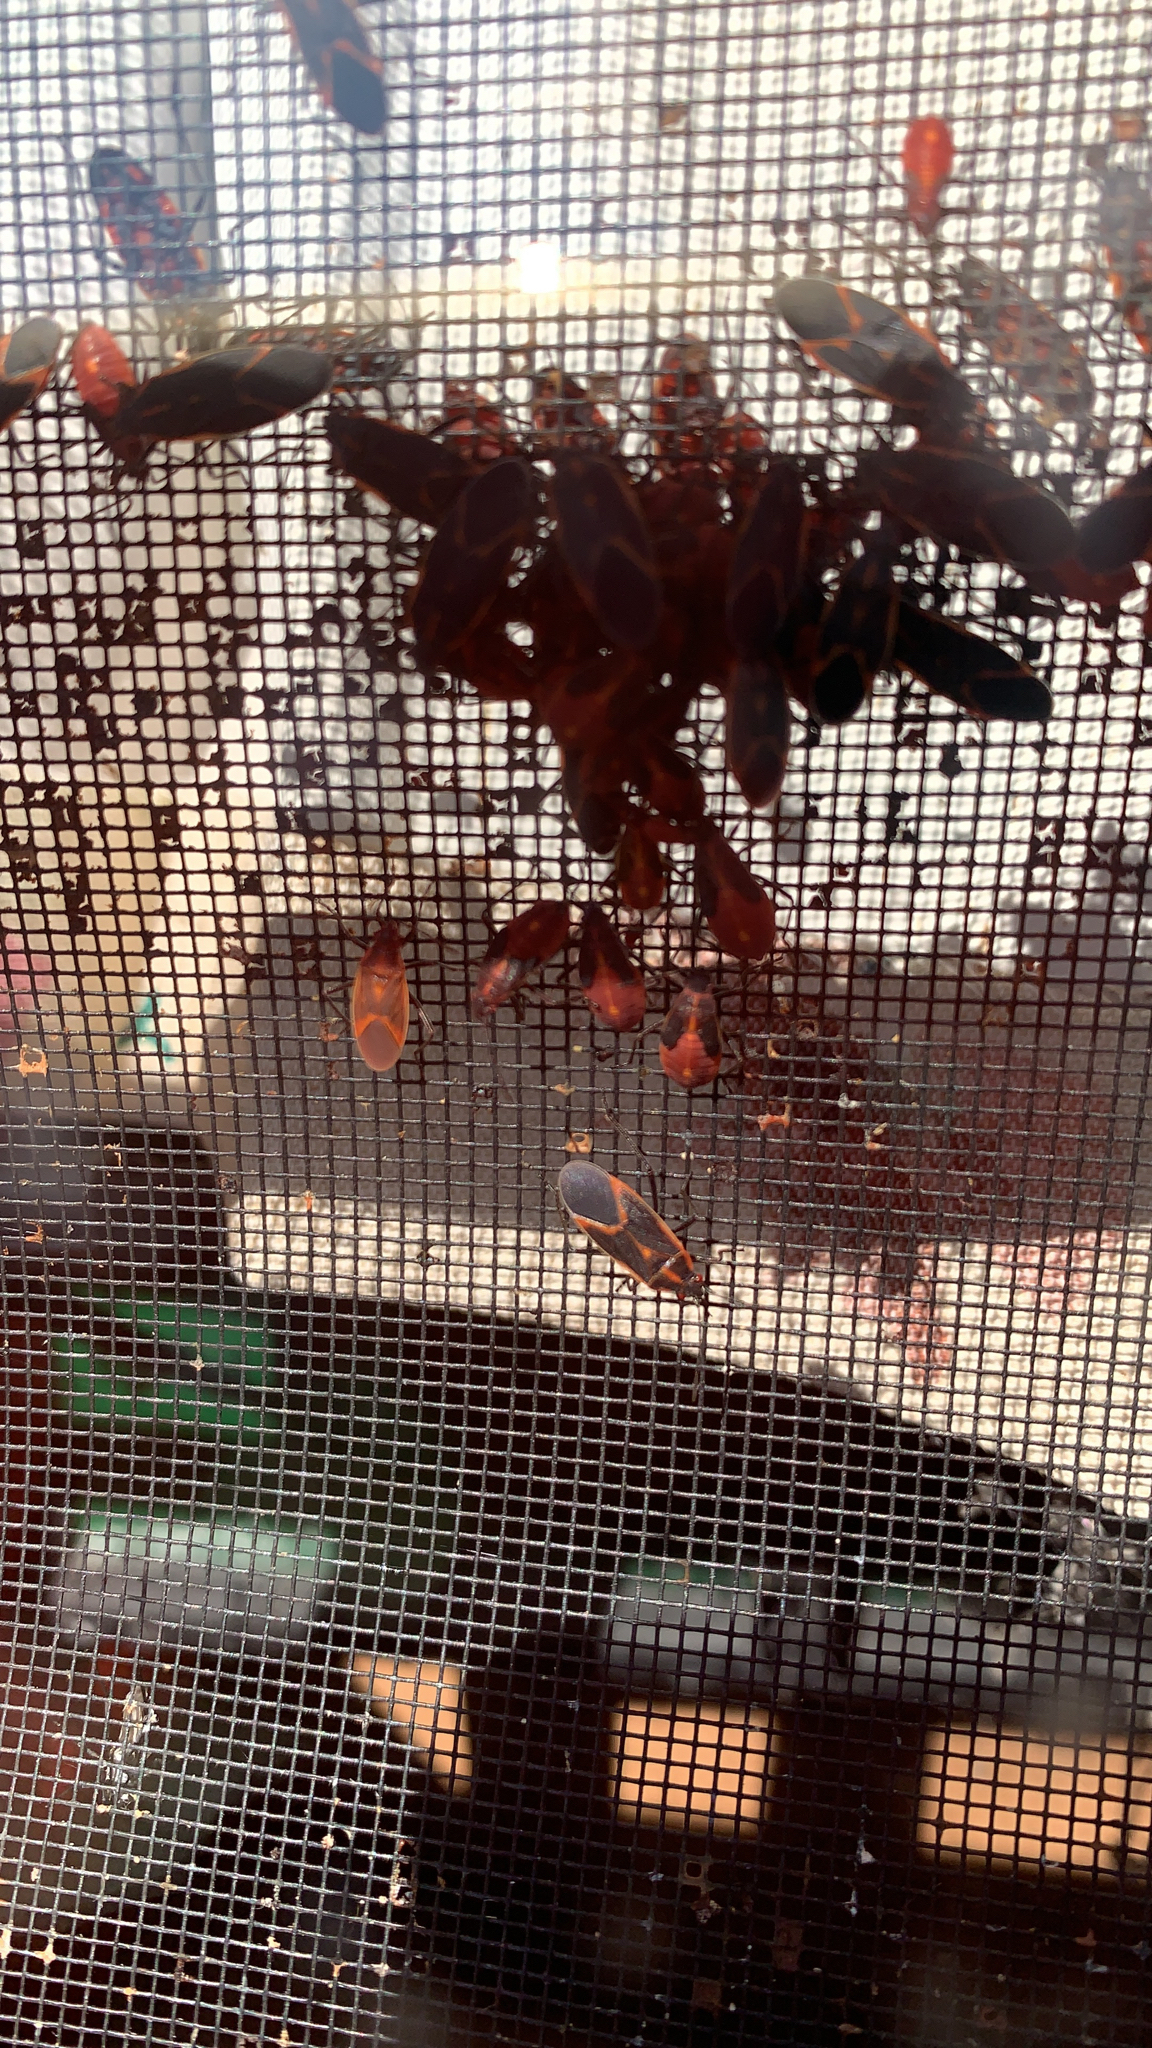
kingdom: Animalia
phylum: Arthropoda
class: Insecta
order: Hemiptera
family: Rhopalidae
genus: Boisea
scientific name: Boisea trivittata
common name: Boxelder bug
